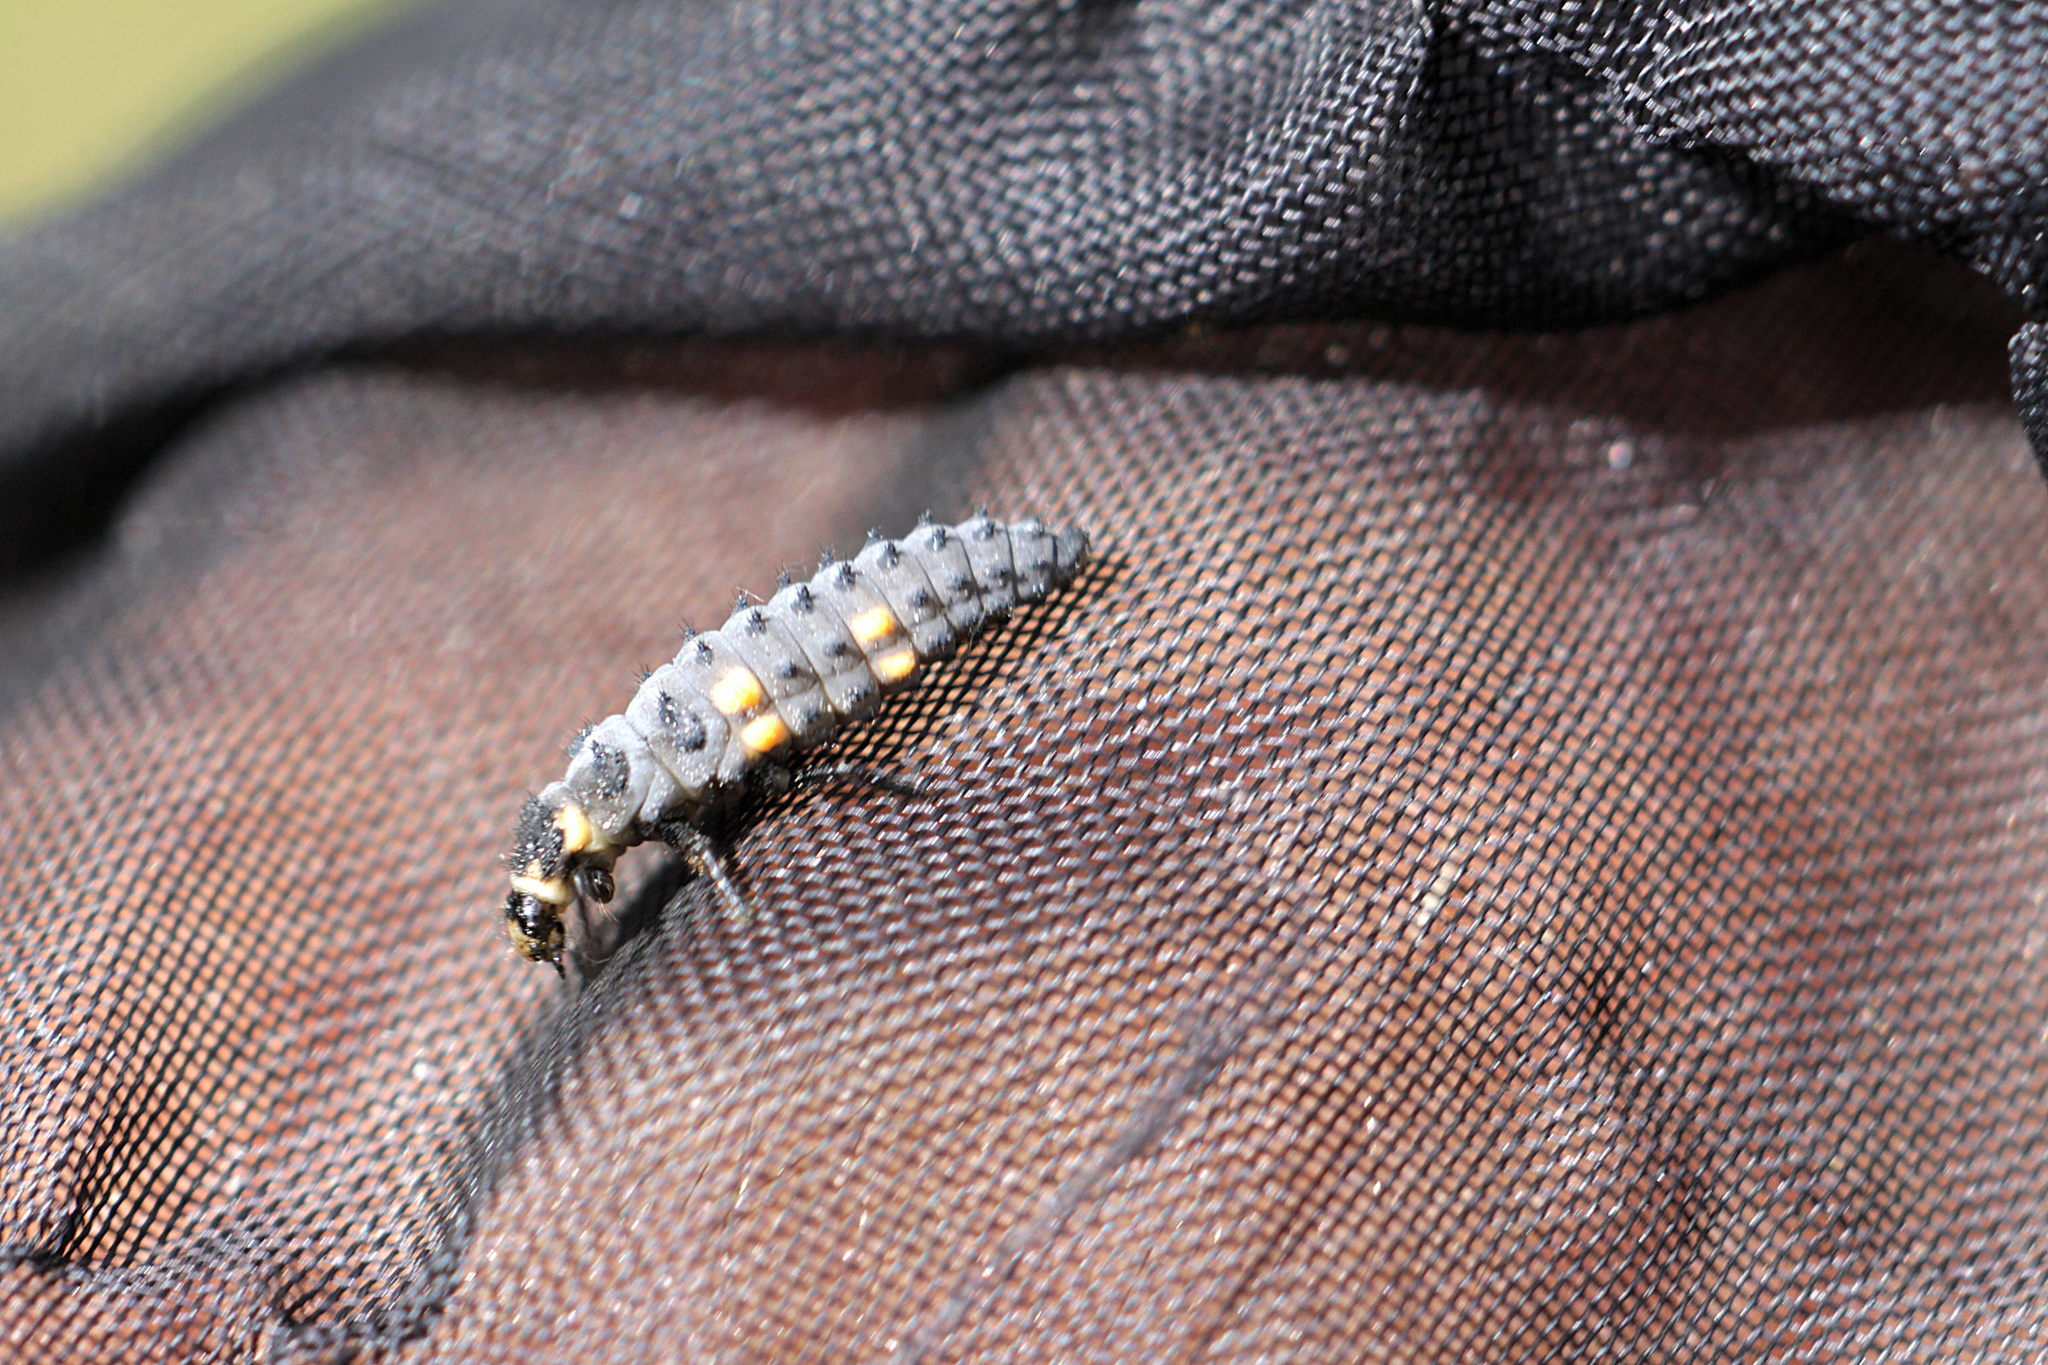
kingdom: Animalia
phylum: Arthropoda
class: Insecta
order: Coleoptera
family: Coccinellidae
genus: Coccinella
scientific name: Coccinella septempunctata
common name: Sevenspotted lady beetle
